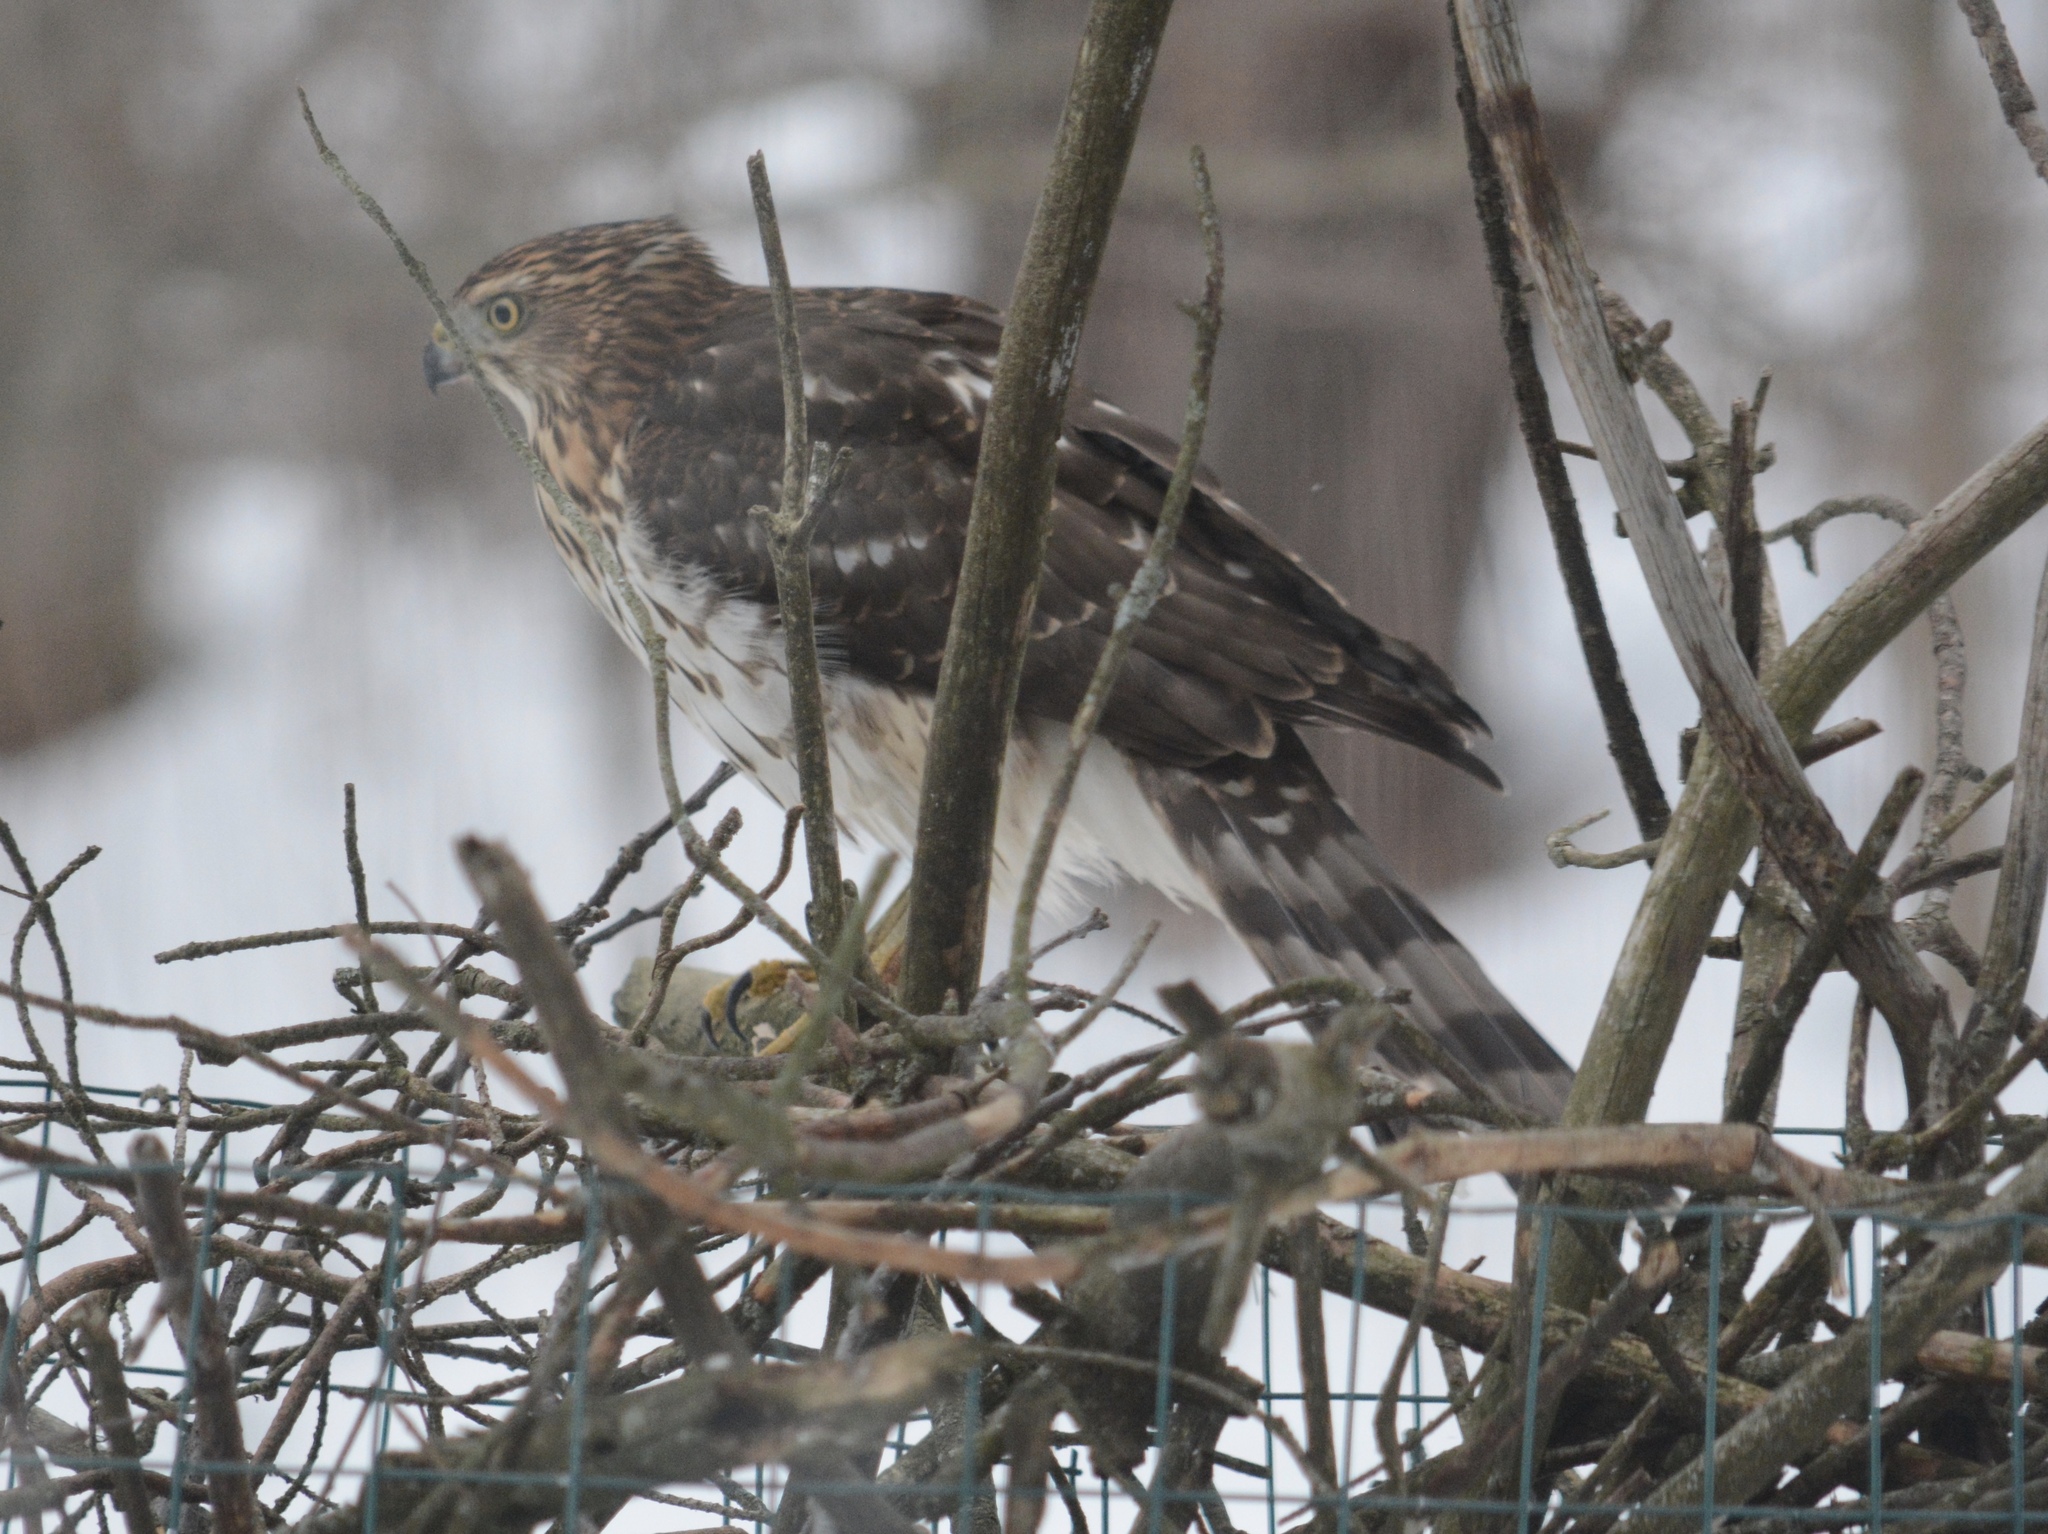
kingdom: Animalia
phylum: Chordata
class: Aves
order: Accipitriformes
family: Accipitridae
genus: Accipiter
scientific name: Accipiter cooperii
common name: Cooper's hawk
